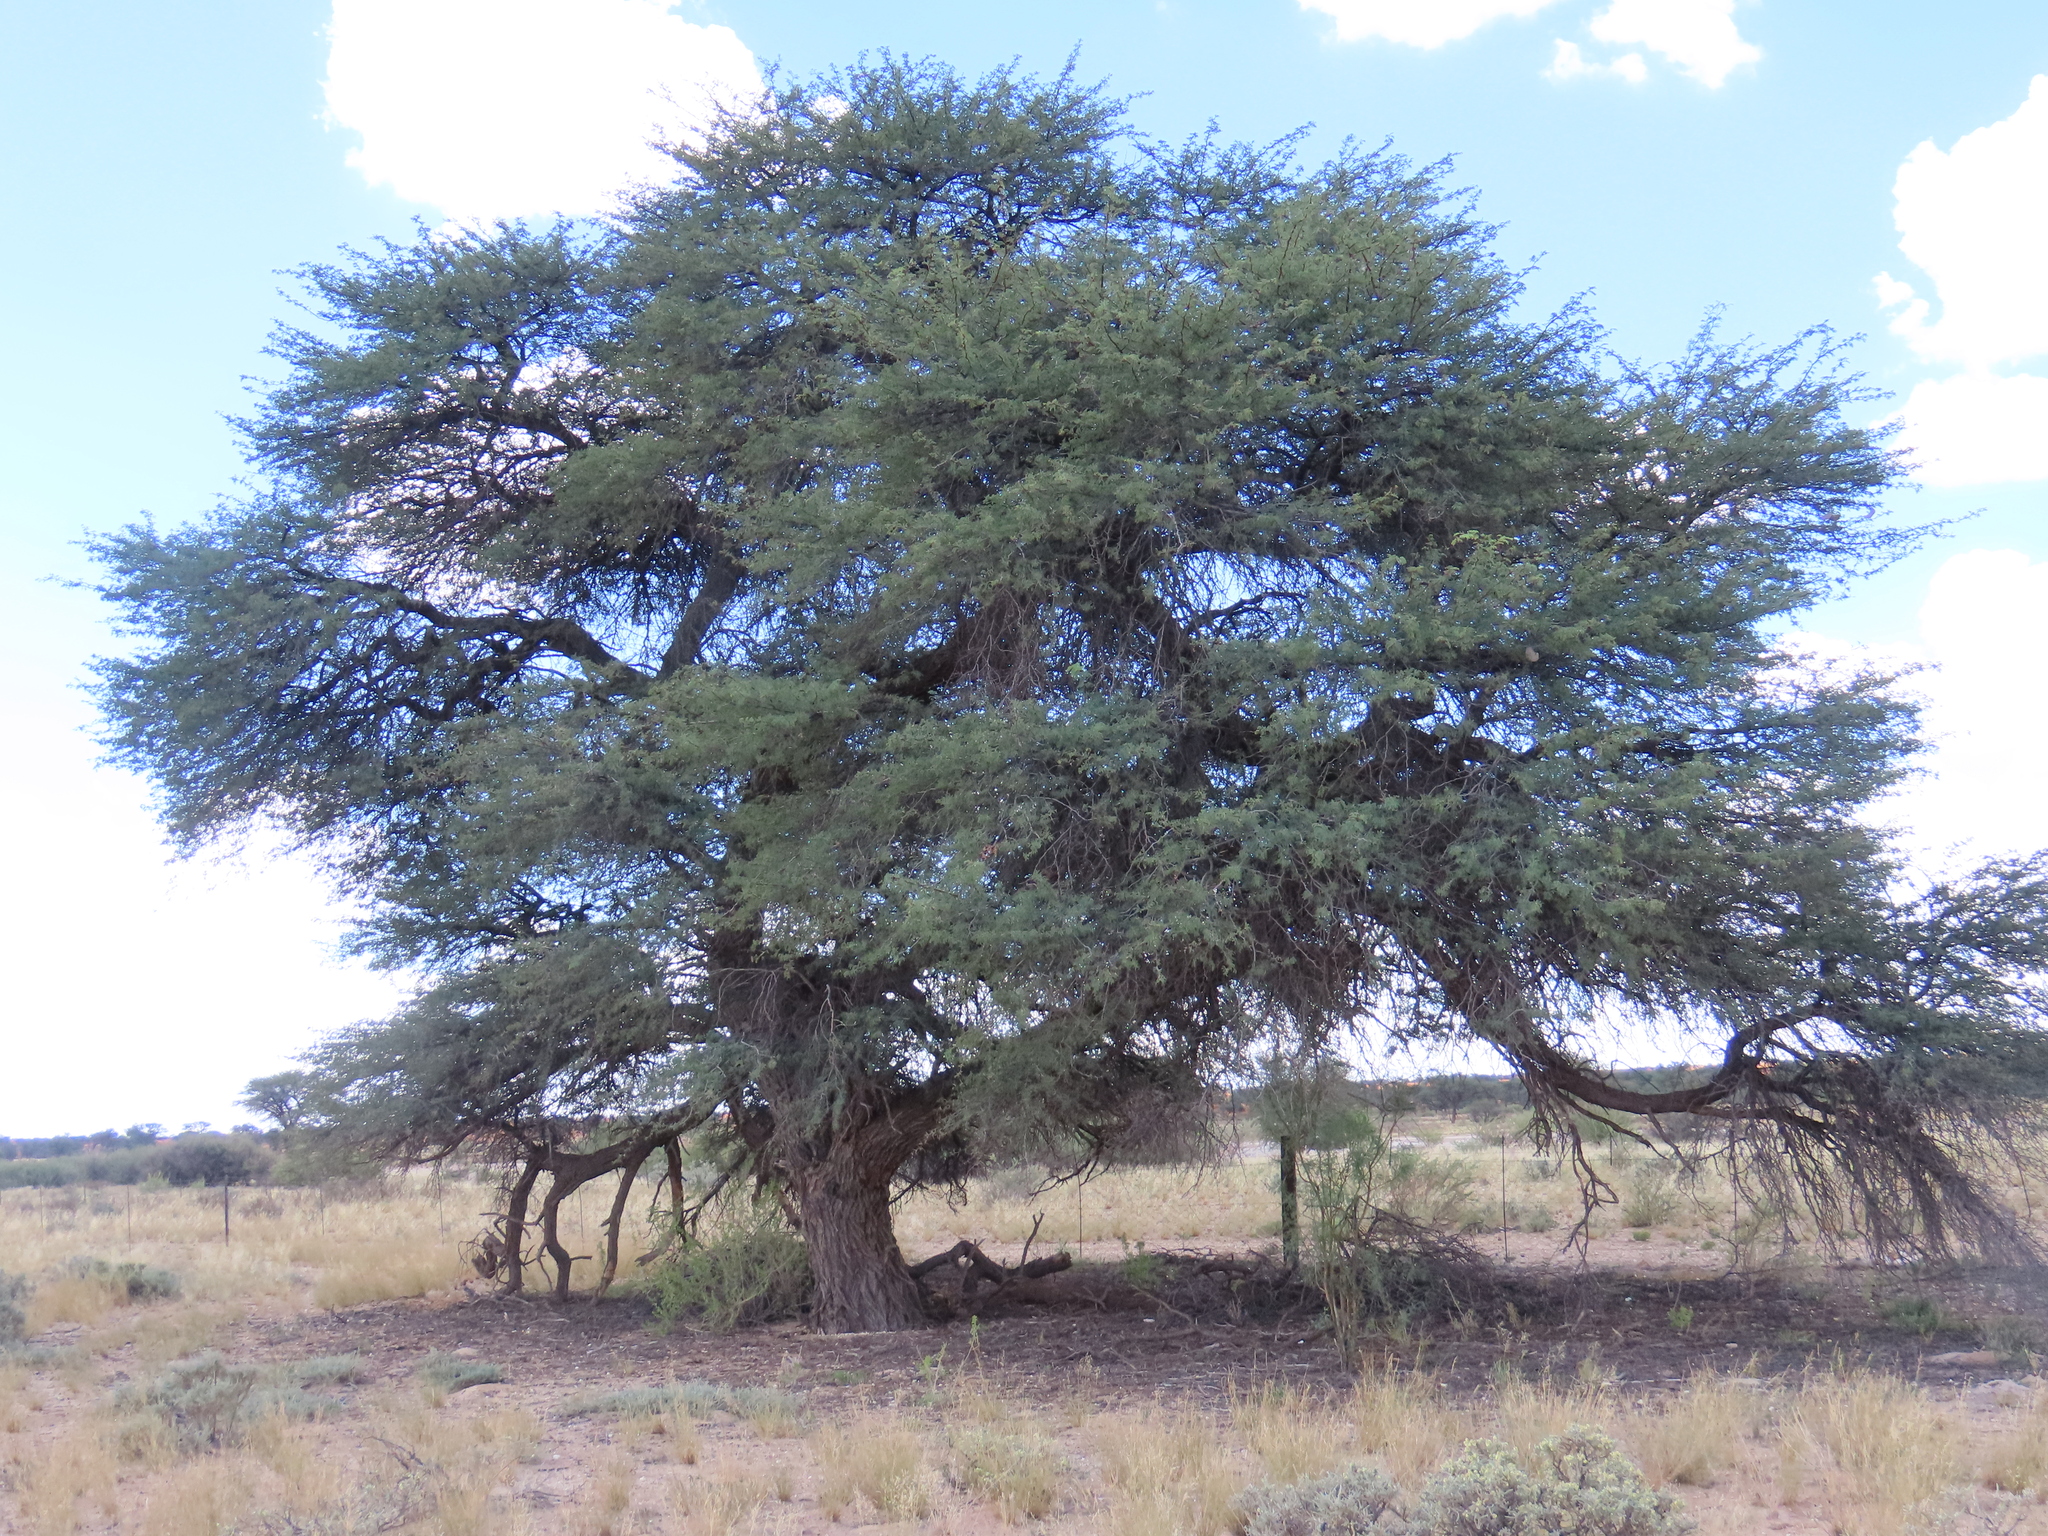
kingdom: Plantae
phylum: Tracheophyta
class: Magnoliopsida
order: Fabales
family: Fabaceae
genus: Vachellia
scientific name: Vachellia erioloba
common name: Camel thorn
